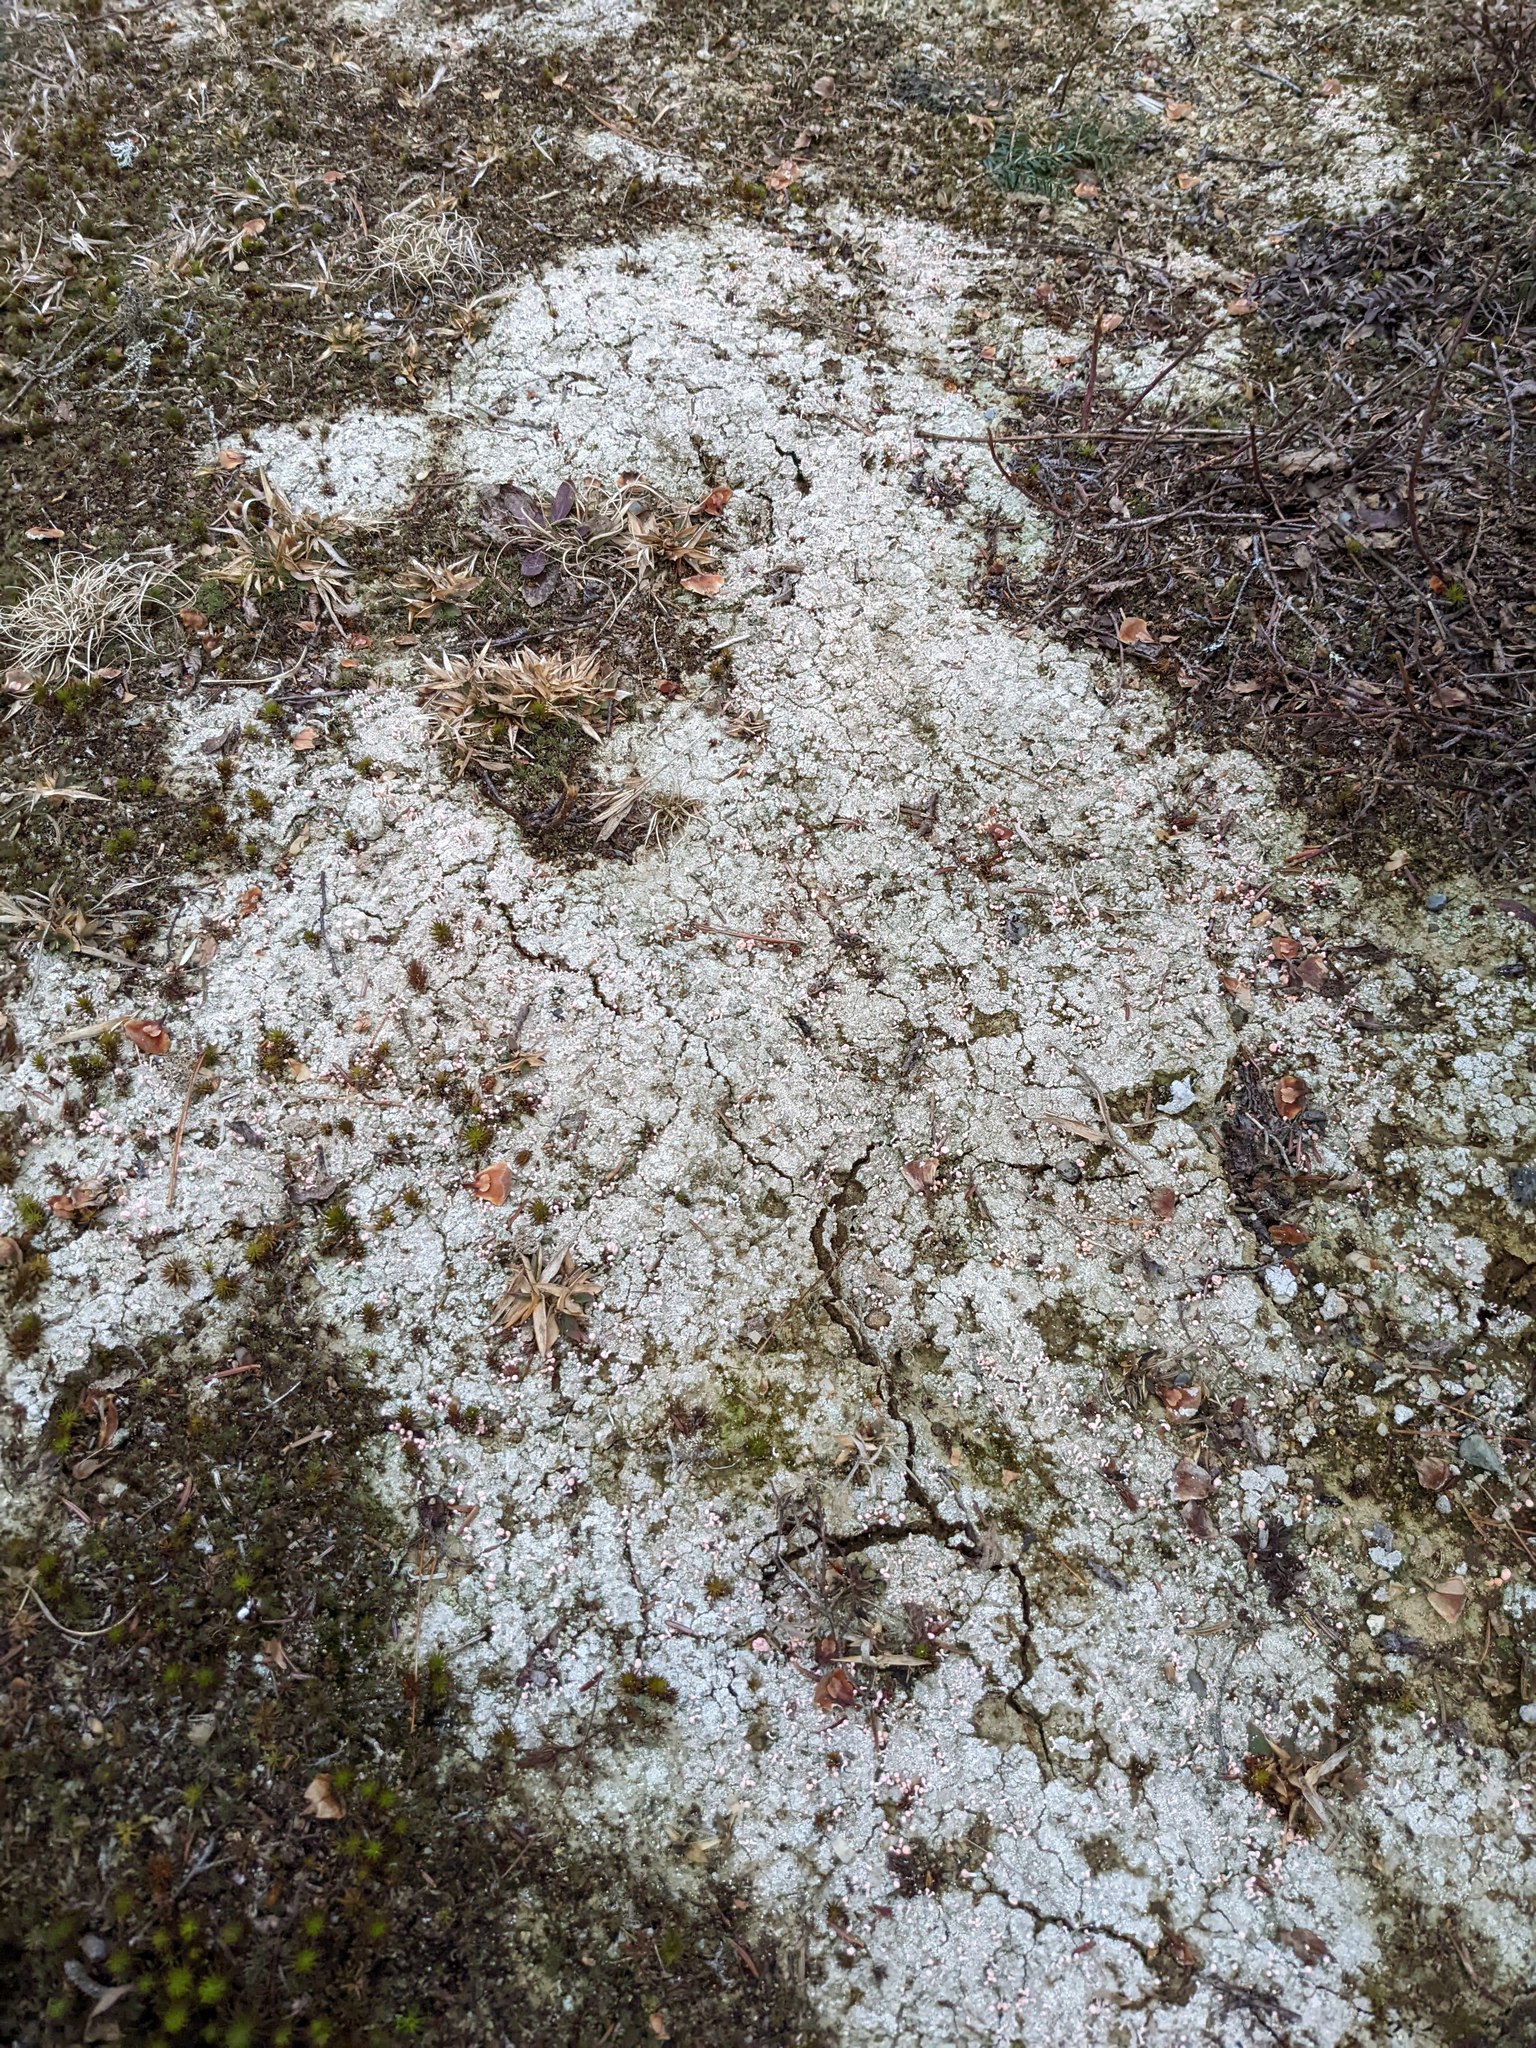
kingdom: Fungi
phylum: Ascomycota
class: Lecanoromycetes
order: Pertusariales
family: Icmadophilaceae
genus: Dibaeis
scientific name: Dibaeis baeomyces
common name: Pink earth lichen
